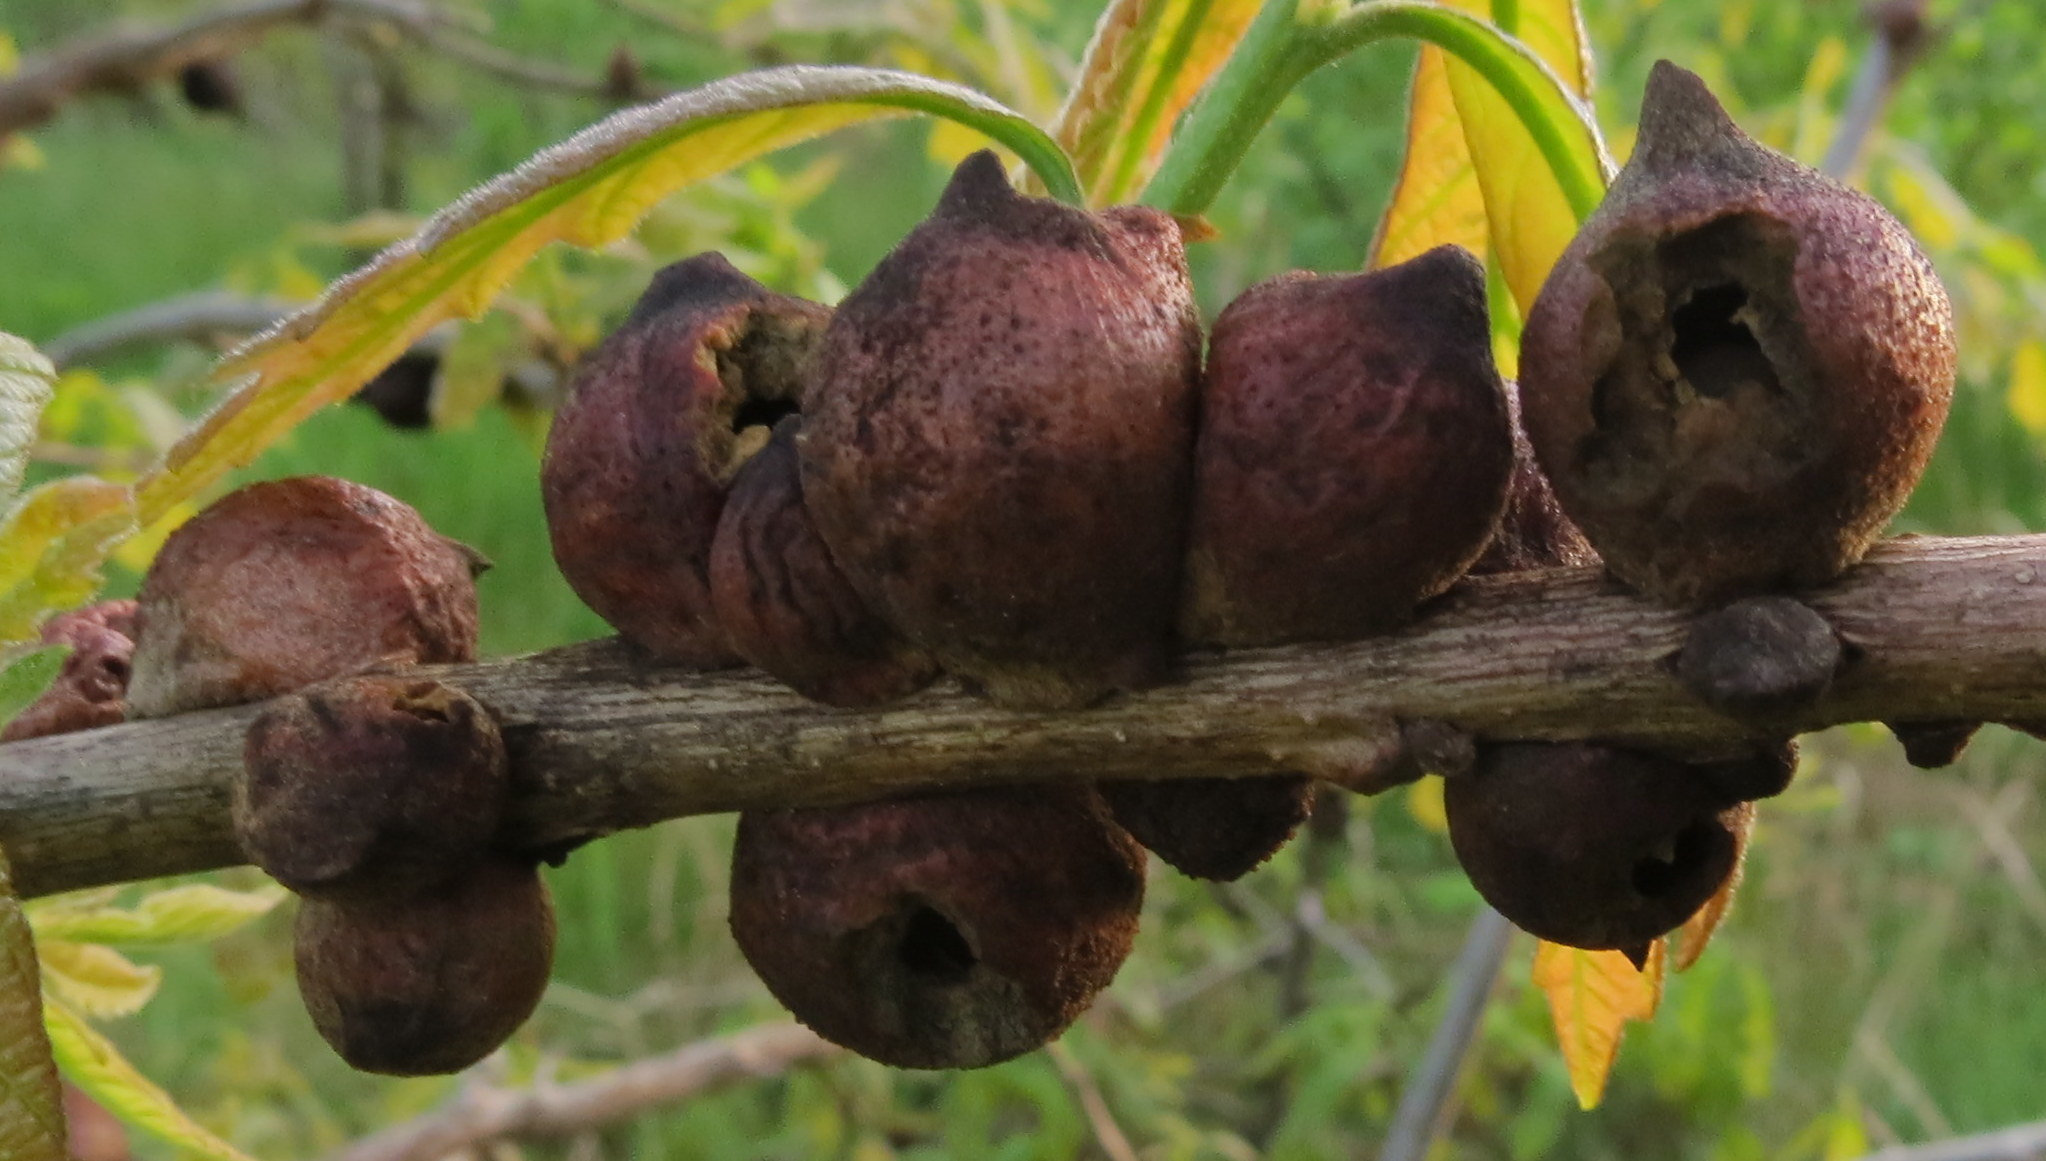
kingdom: Animalia
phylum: Arthropoda
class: Insecta
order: Hymenoptera
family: Cynipidae
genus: Disholcaspis
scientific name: Disholcaspis
